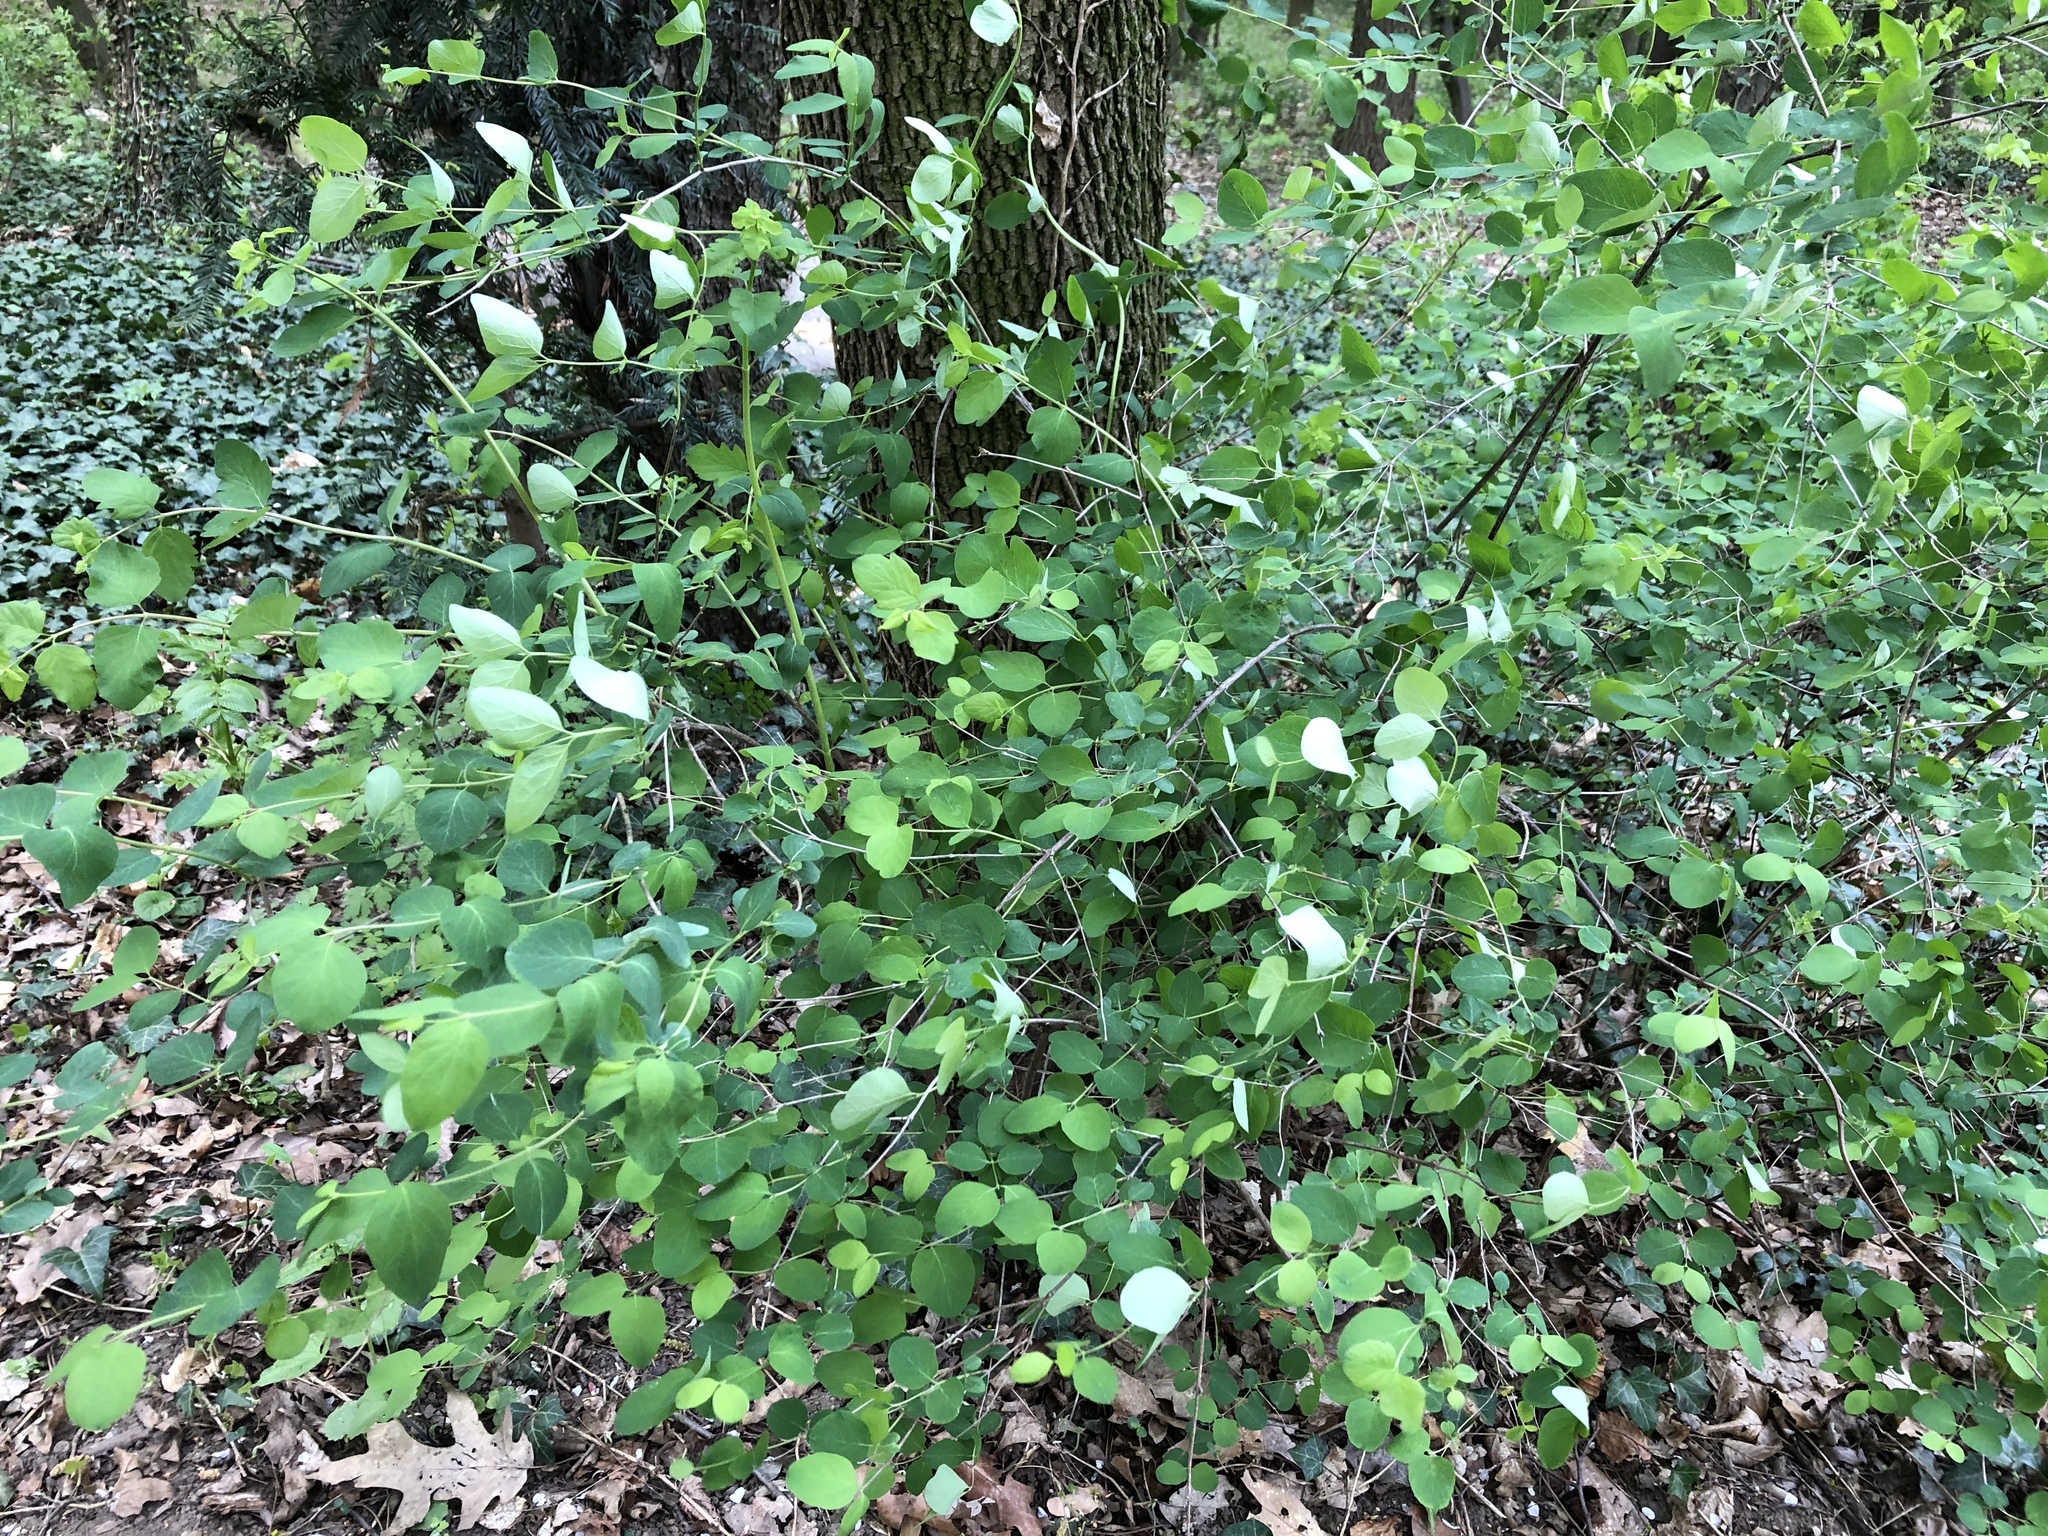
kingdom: Plantae
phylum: Tracheophyta
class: Magnoliopsida
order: Dipsacales
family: Caprifoliaceae
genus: Symphoricarpos
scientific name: Symphoricarpos albus
